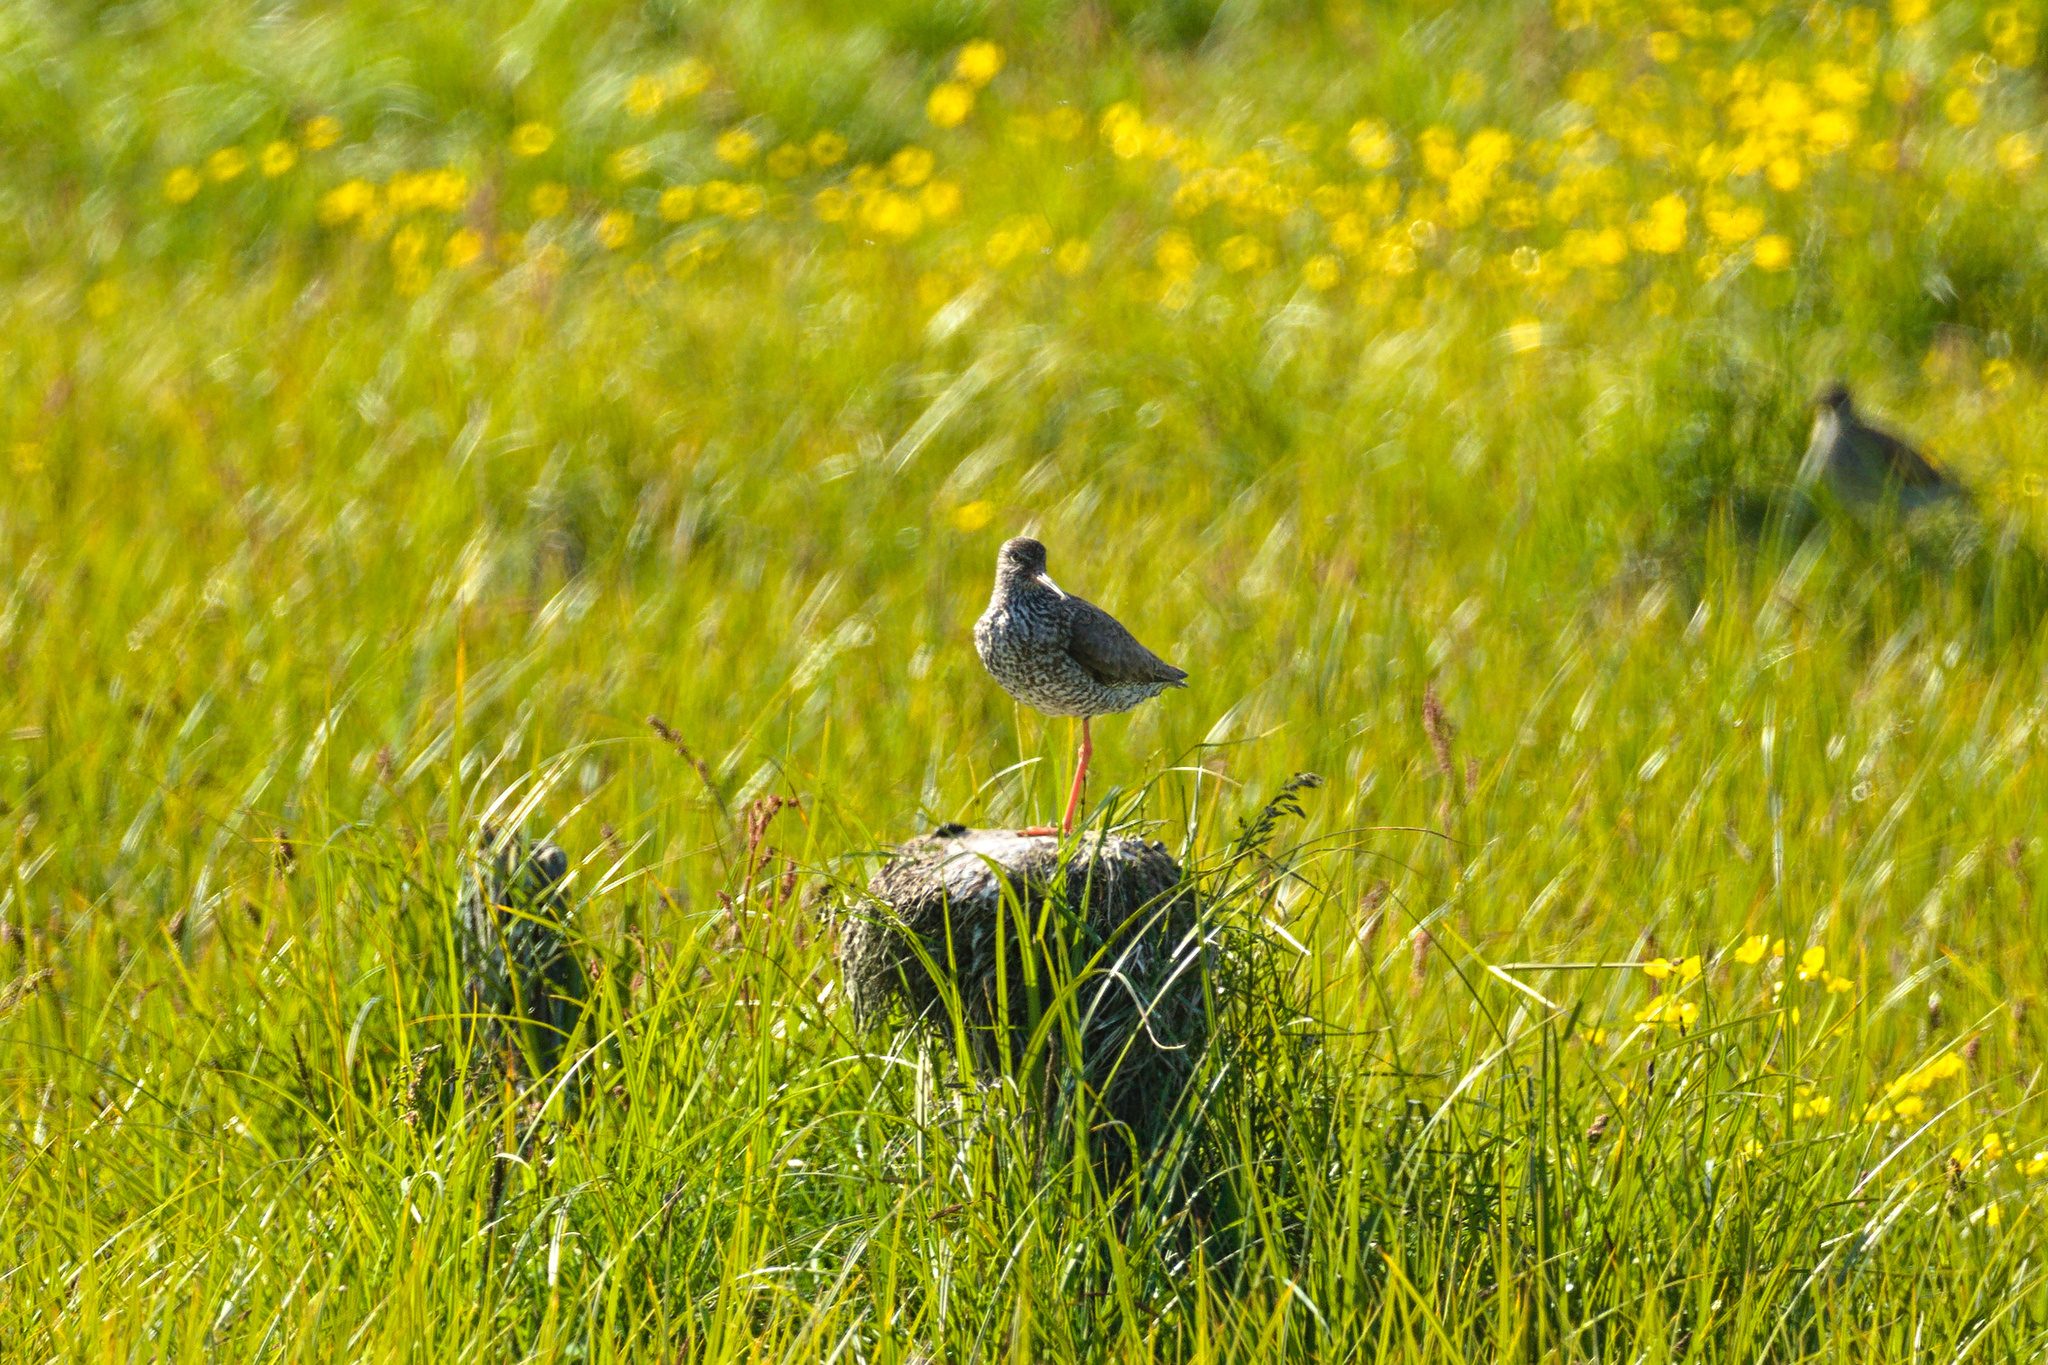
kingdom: Animalia
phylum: Chordata
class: Aves
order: Charadriiformes
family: Scolopacidae
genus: Tringa
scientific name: Tringa totanus
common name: Common redshank
